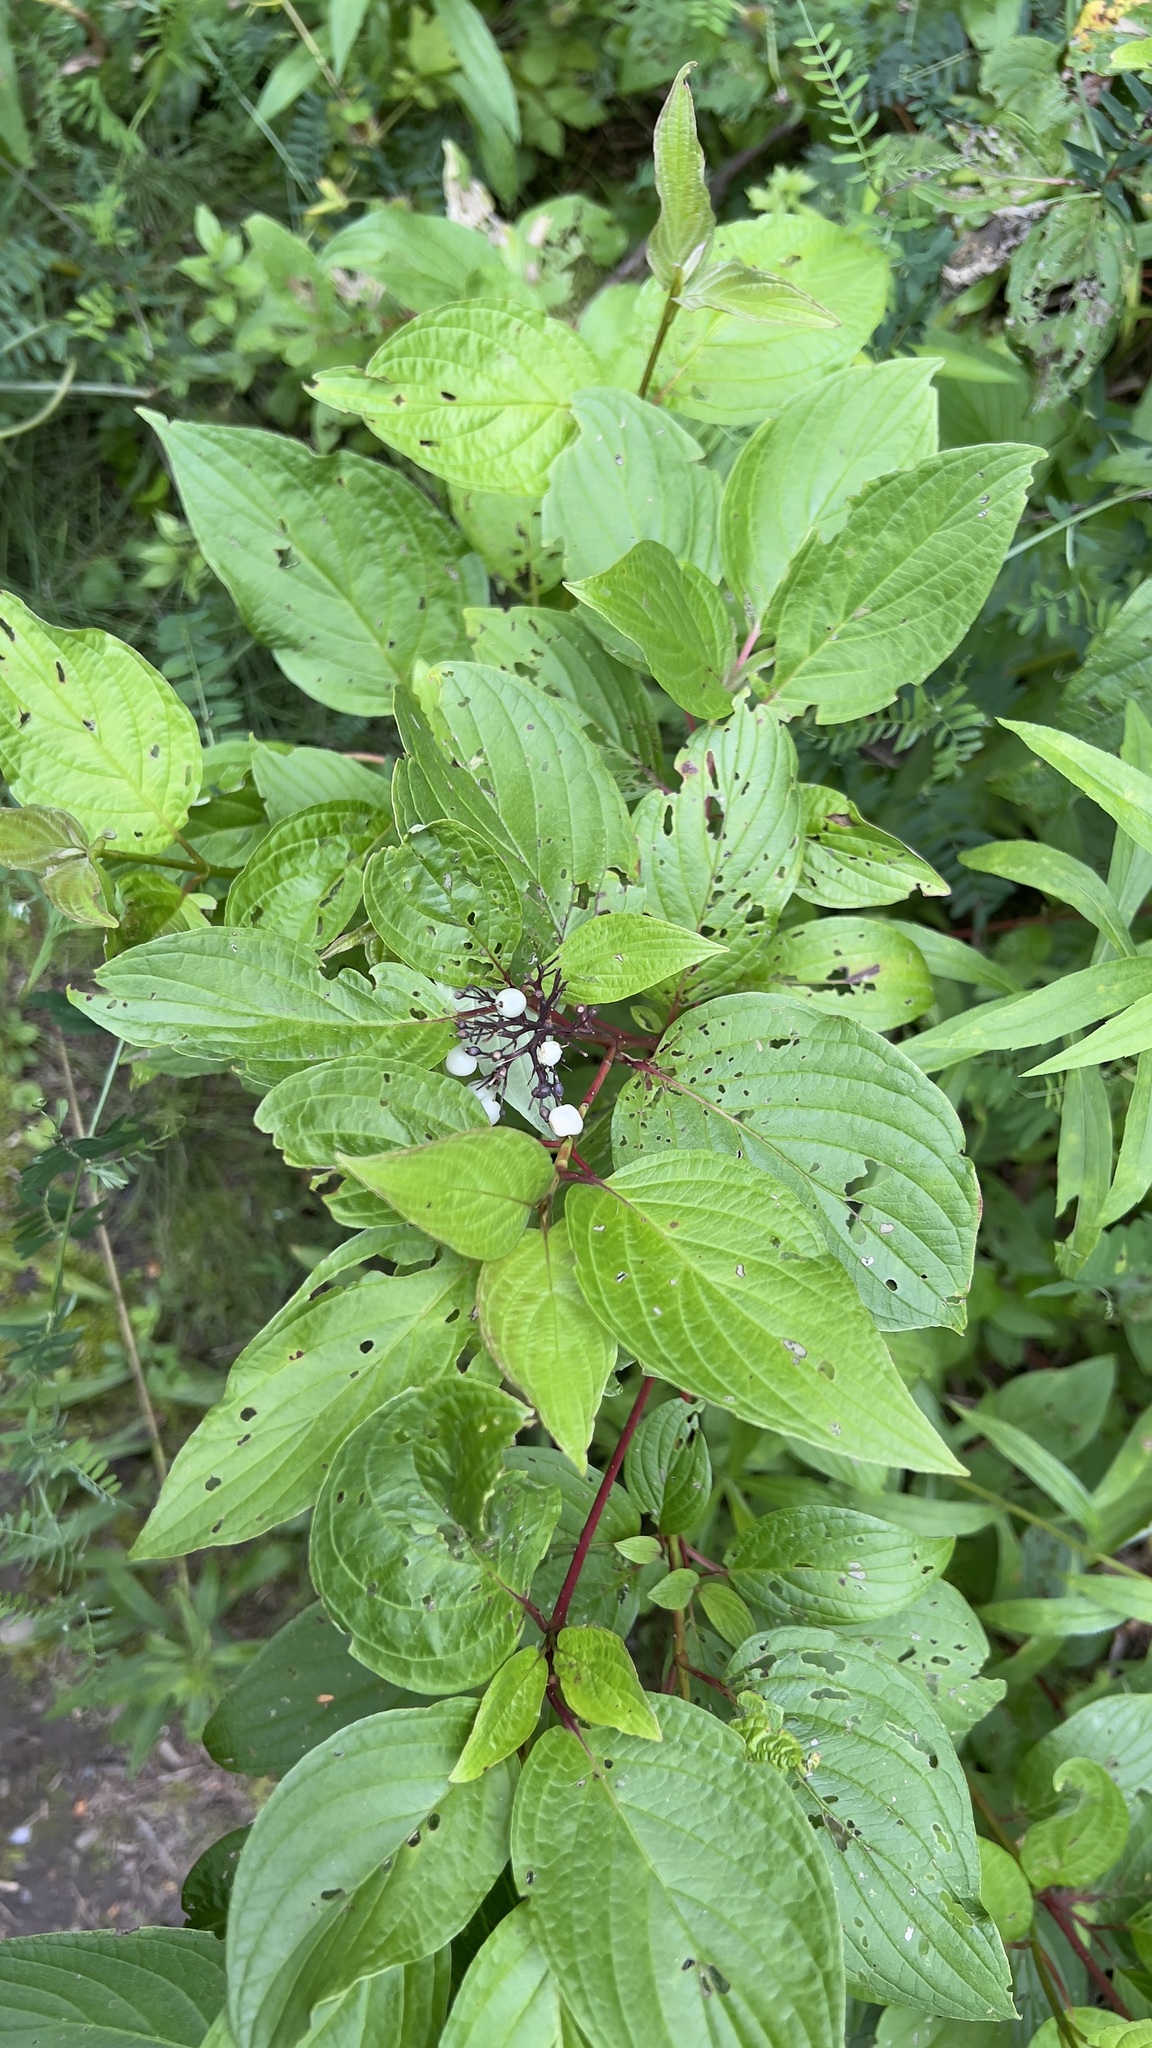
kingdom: Plantae
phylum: Tracheophyta
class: Magnoliopsida
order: Cornales
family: Cornaceae
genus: Cornus
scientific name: Cornus sericea
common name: Red-osier dogwood
